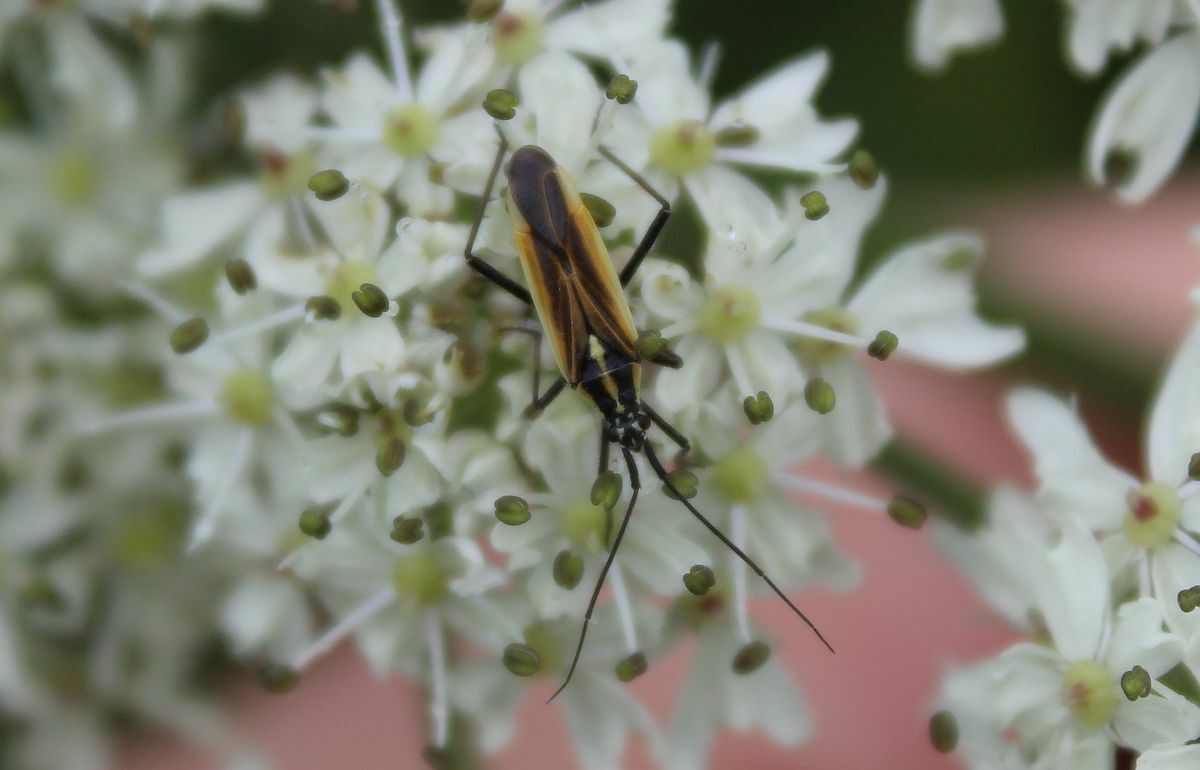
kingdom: Animalia
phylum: Arthropoda
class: Insecta
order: Hemiptera
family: Miridae
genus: Leptopterna
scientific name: Leptopterna dolabrata
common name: Meadow plant bug
